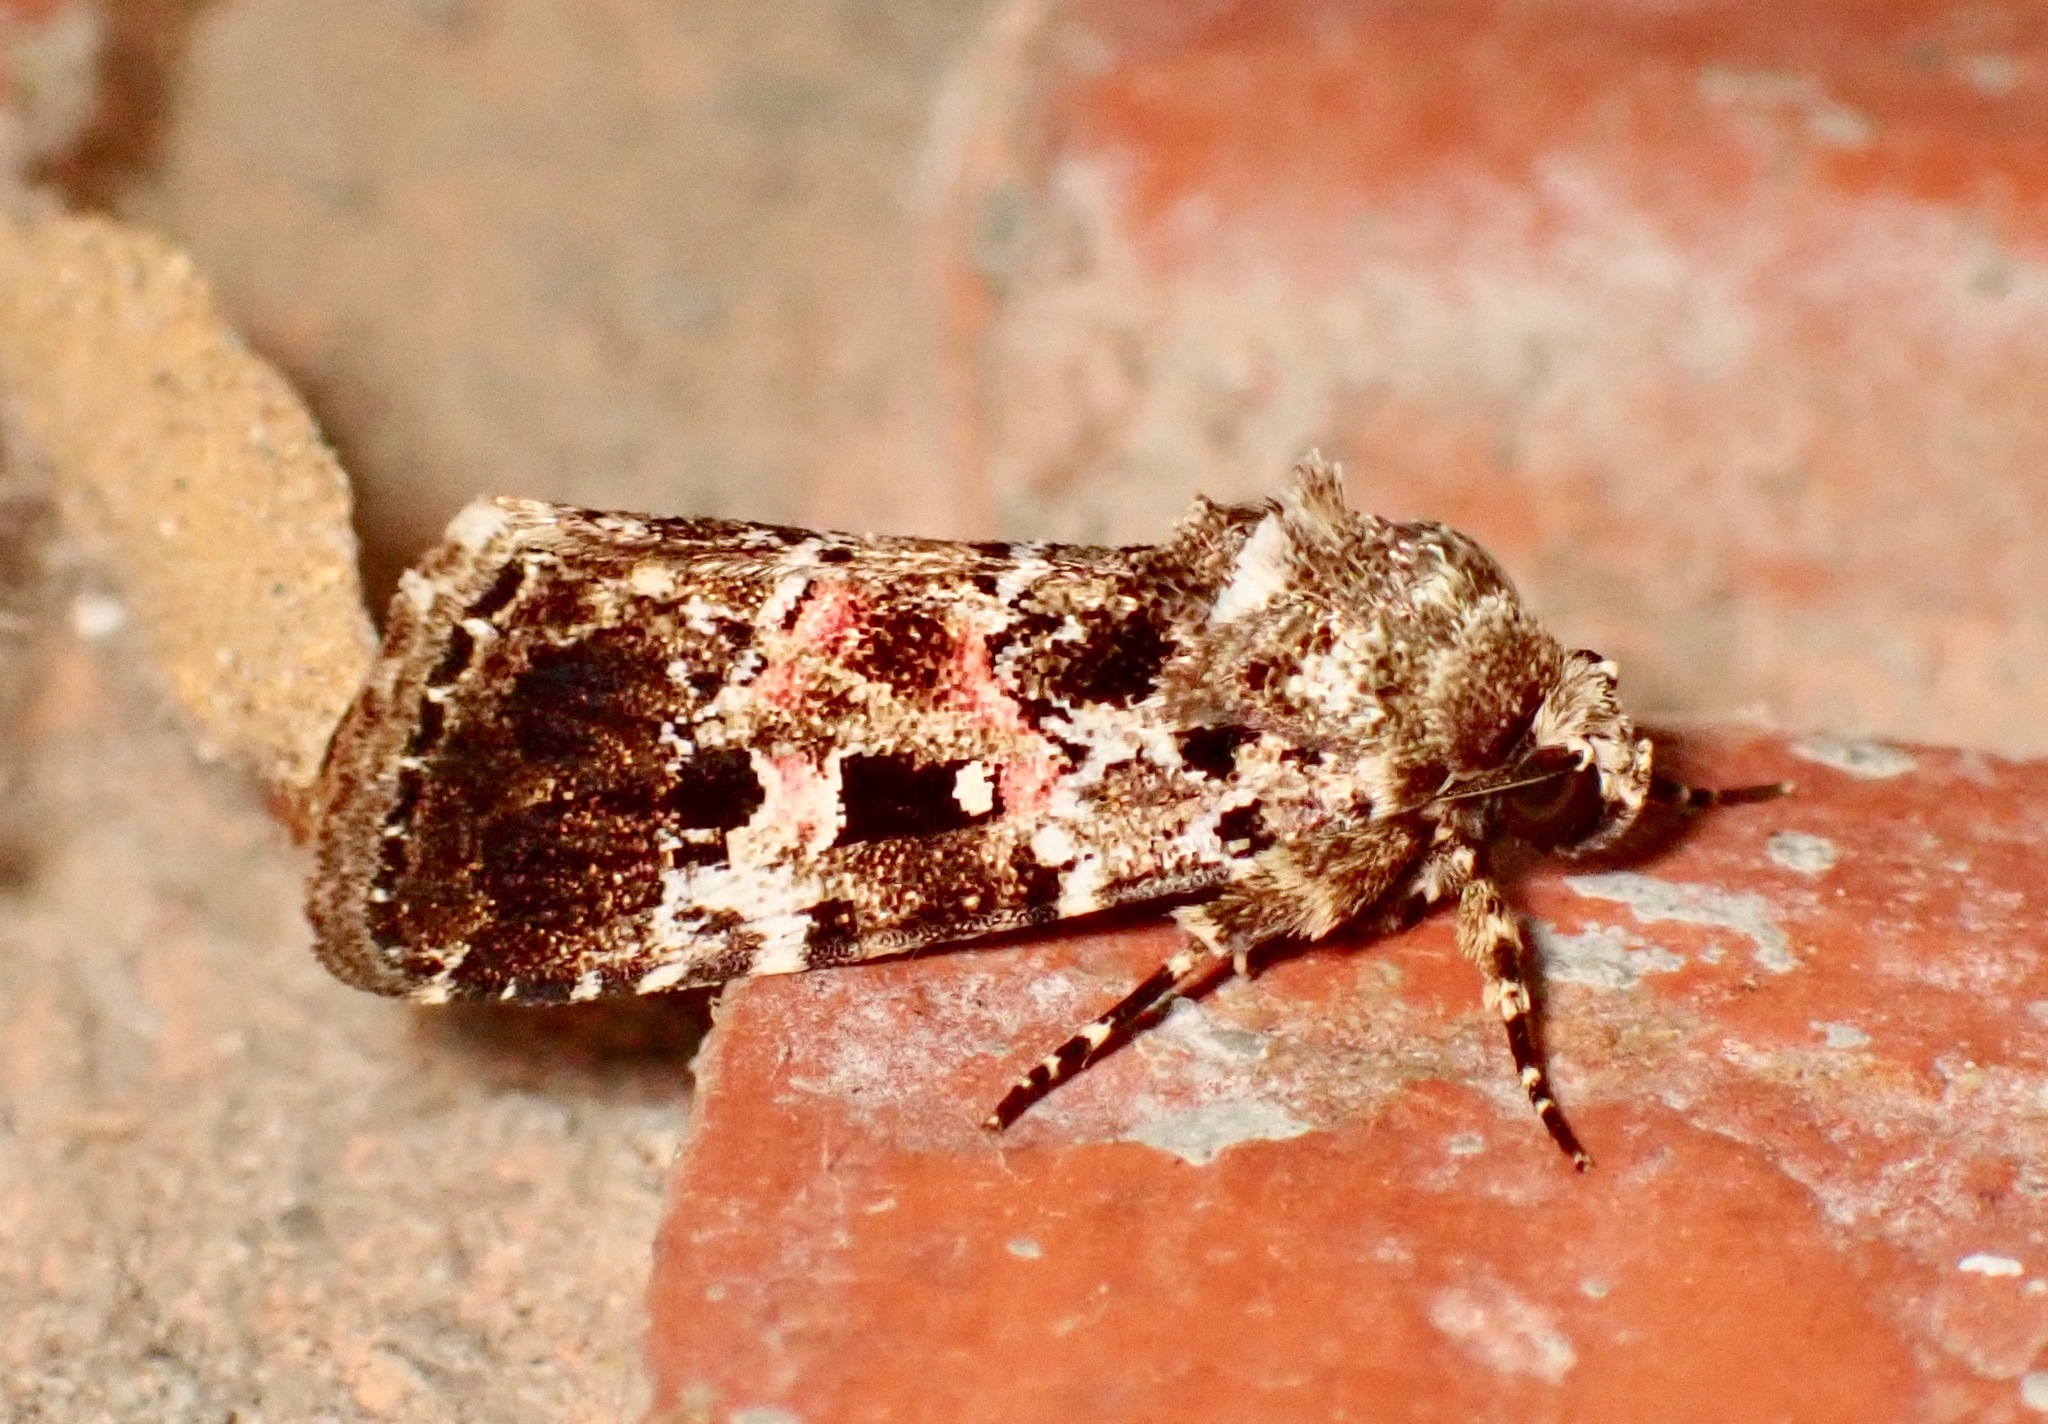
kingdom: Animalia
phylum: Arthropoda
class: Insecta
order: Lepidoptera
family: Noctuidae
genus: Elaphria
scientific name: Elaphria pulchra
